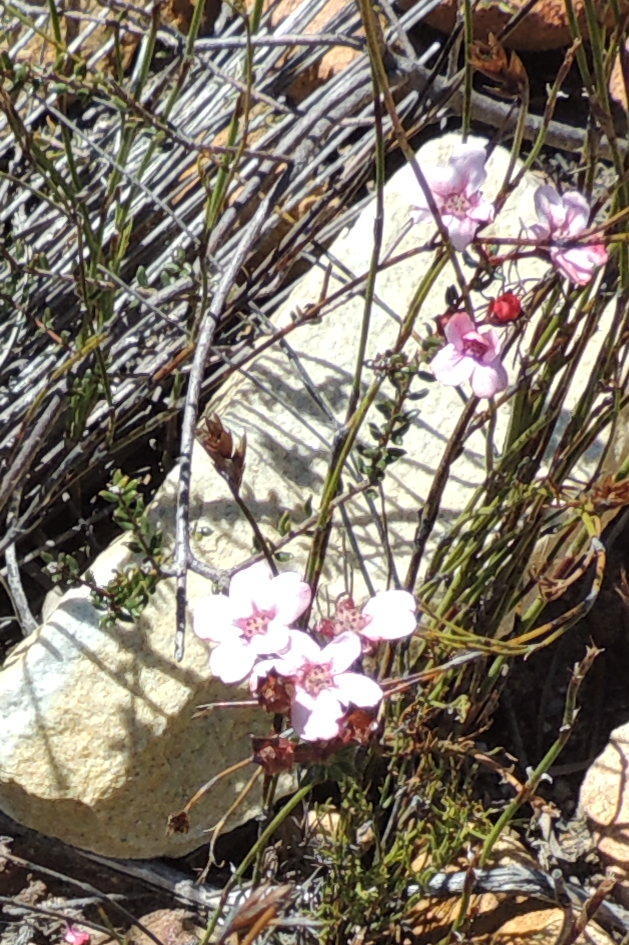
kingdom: Plantae
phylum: Tracheophyta
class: Magnoliopsida
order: Sapindales
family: Rutaceae
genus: Adenandra
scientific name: Adenandra mundiifolia
